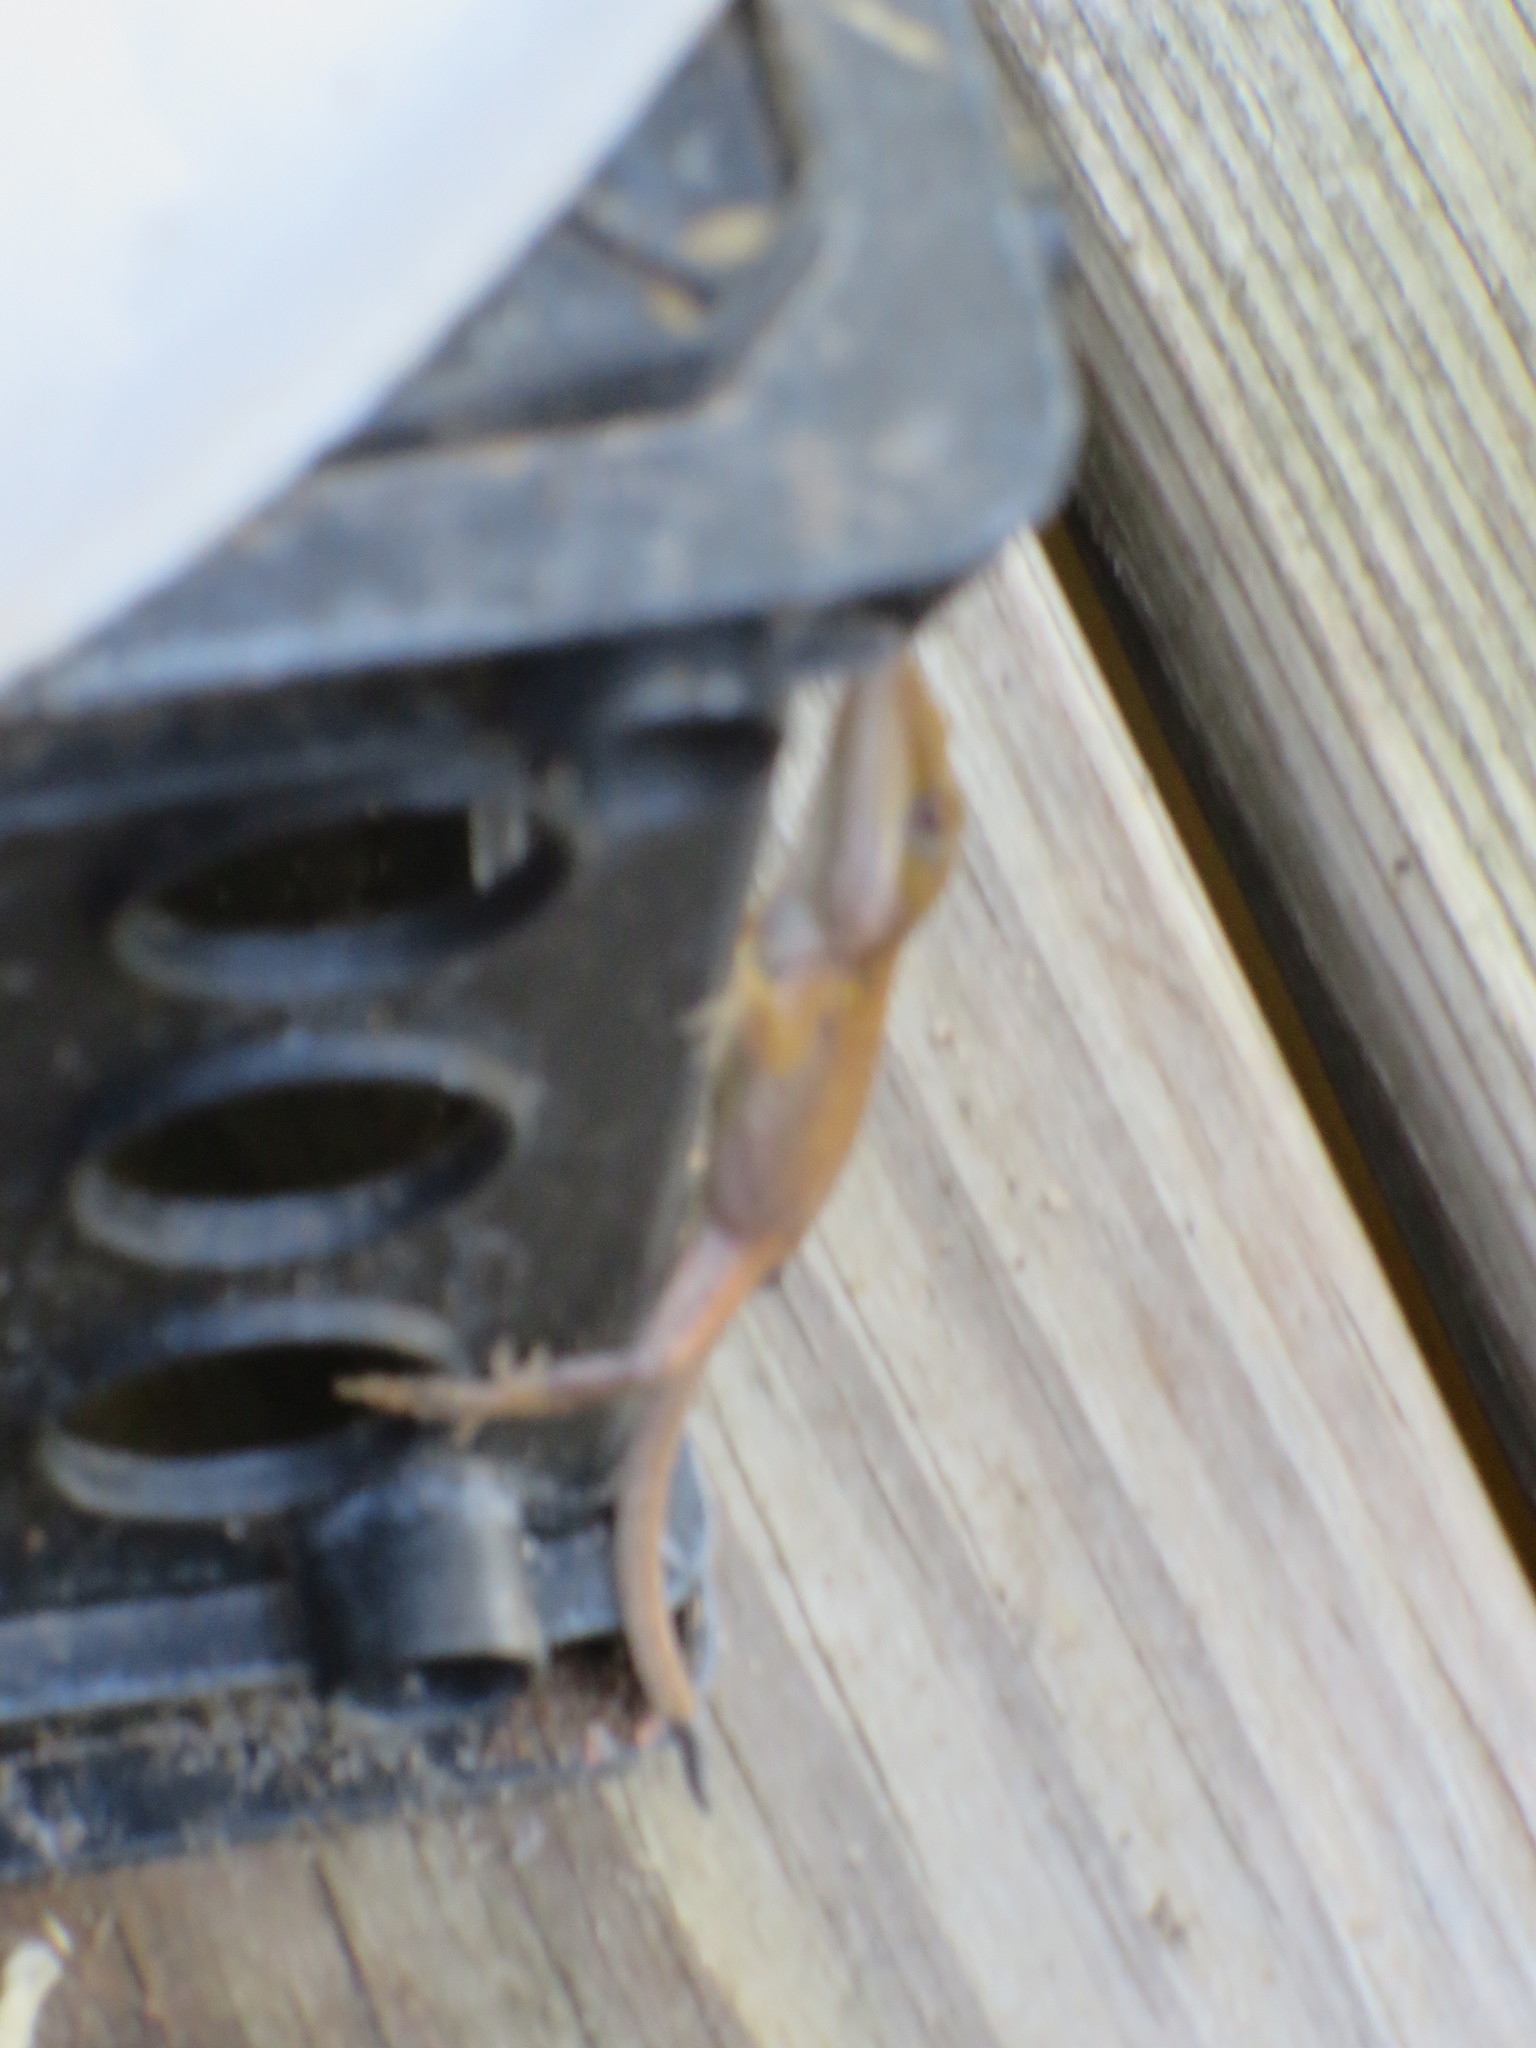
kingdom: Animalia
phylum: Chordata
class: Squamata
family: Dactyloidae
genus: Anolis
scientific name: Anolis carolinensis
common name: Green anole
